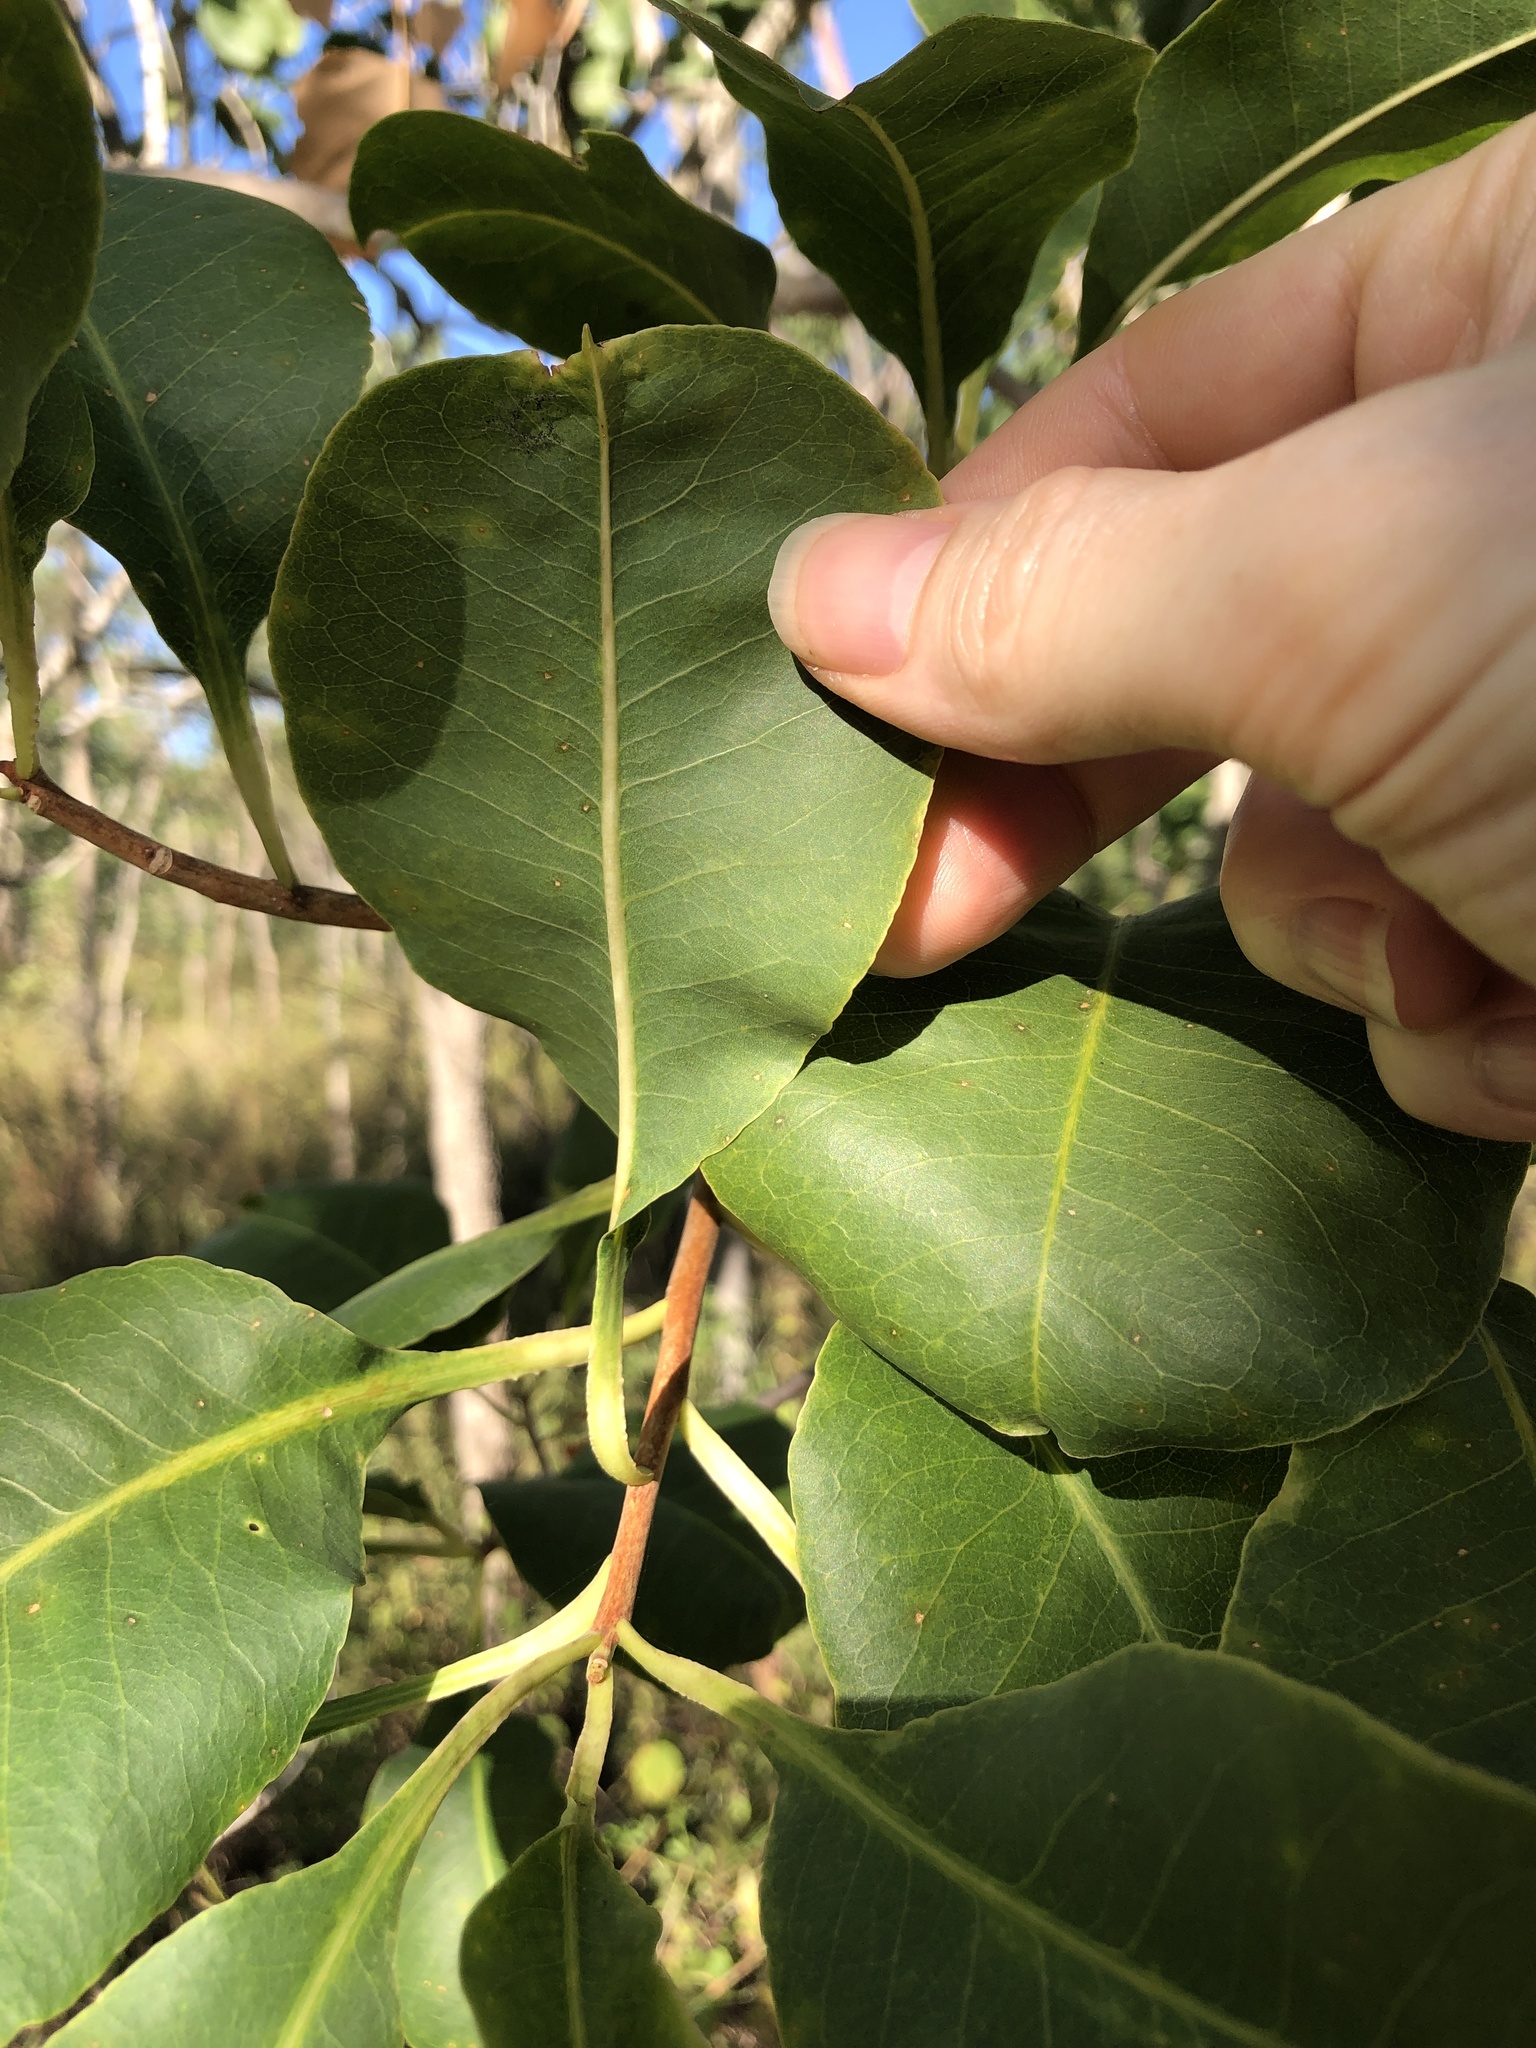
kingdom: Plantae
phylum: Tracheophyta
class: Magnoliopsida
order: Ericales
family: Lecythidaceae
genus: Planchonia
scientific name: Planchonia careya
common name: Cockatoo-apple
